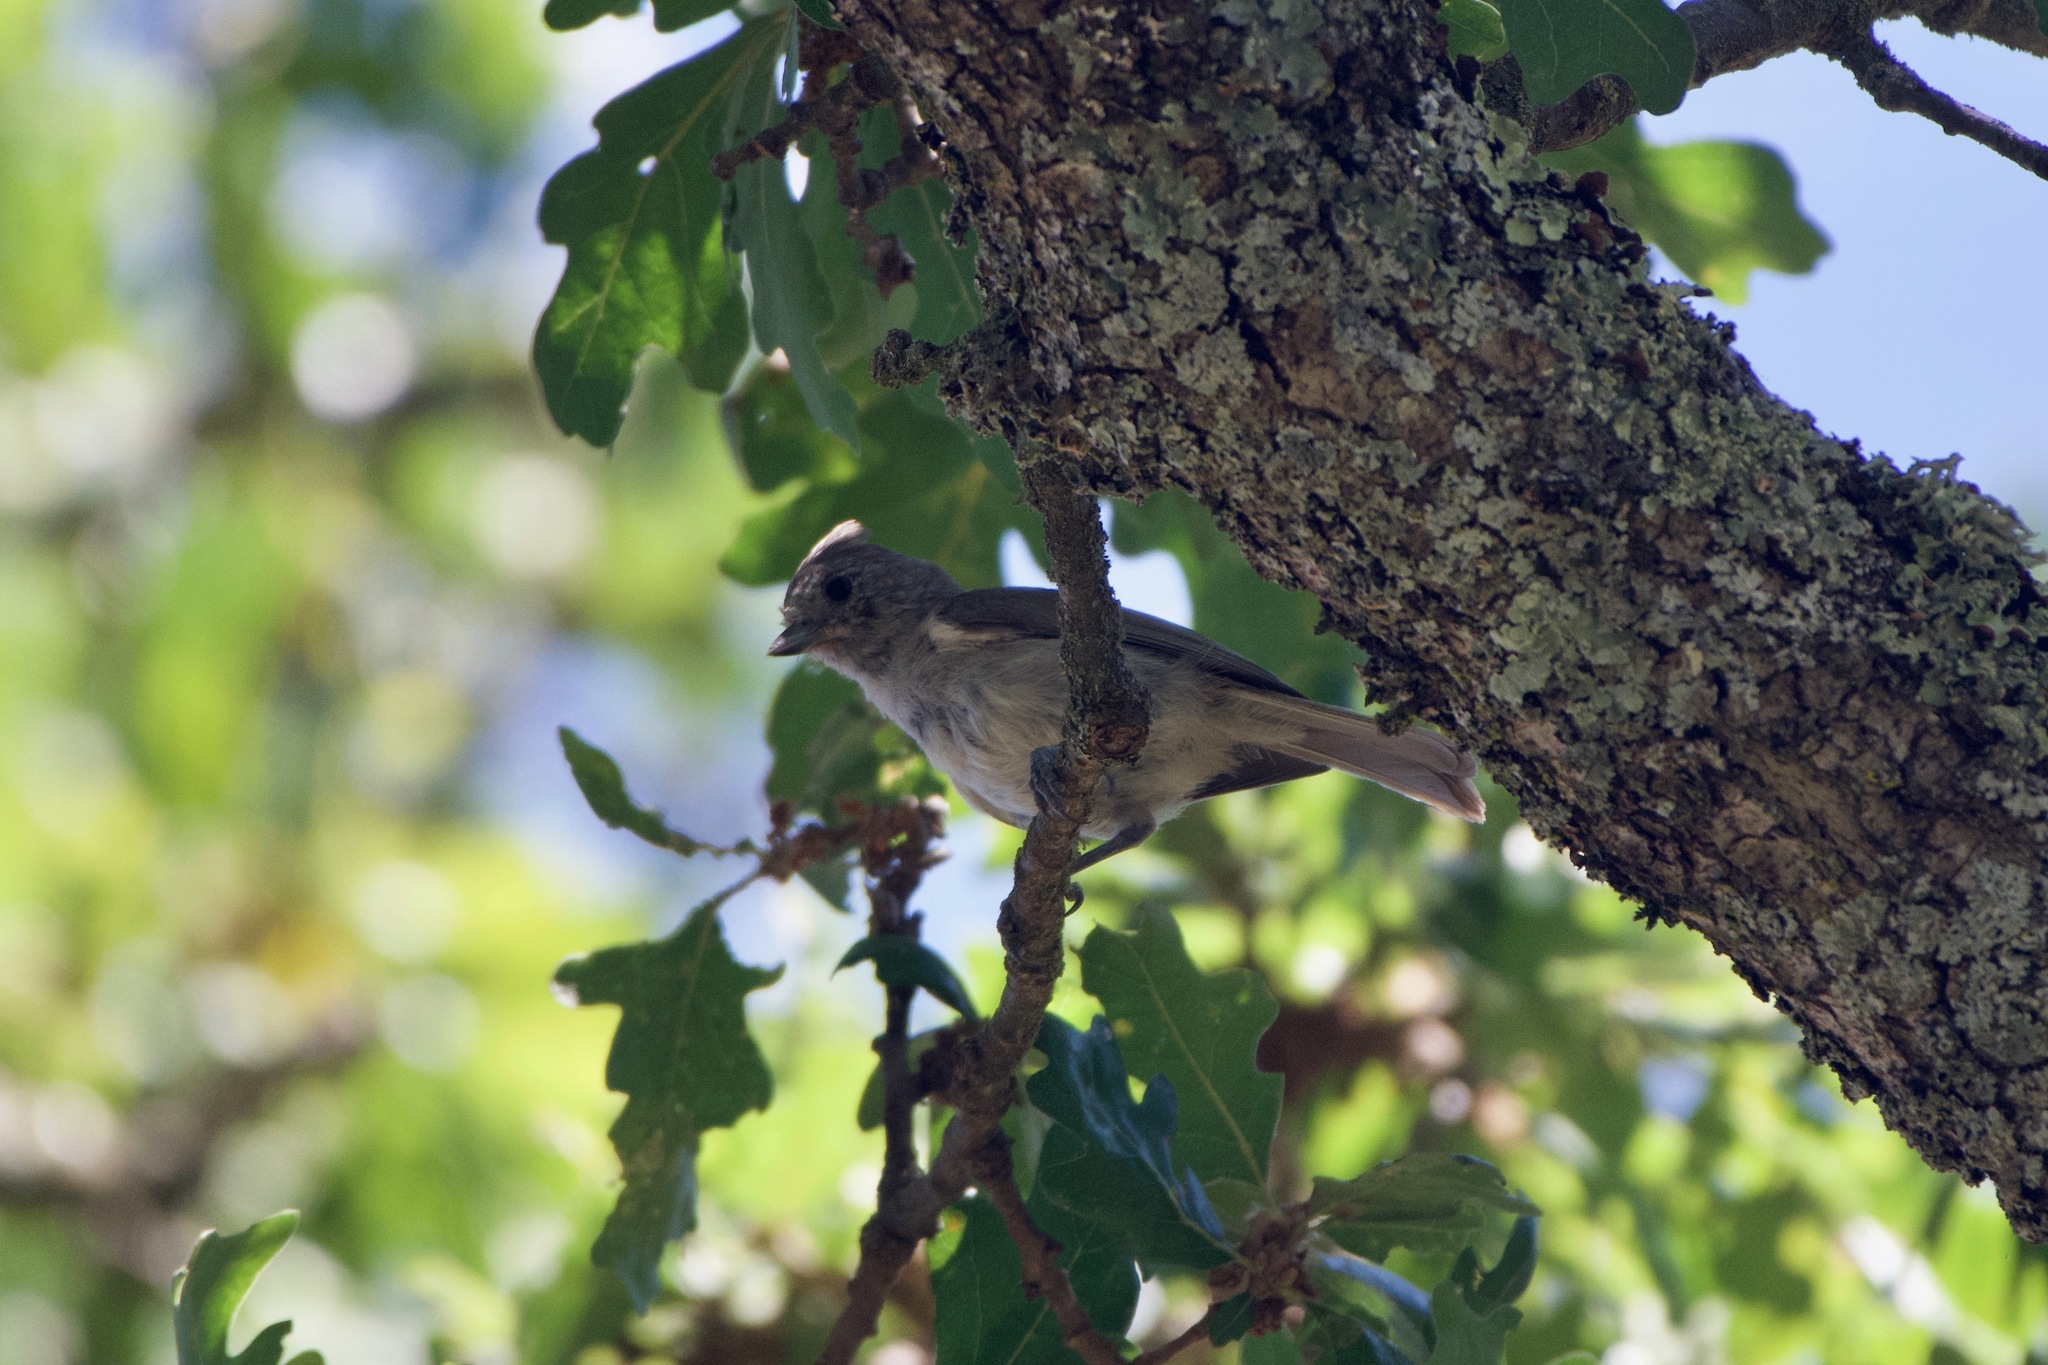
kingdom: Animalia
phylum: Chordata
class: Aves
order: Passeriformes
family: Paridae
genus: Baeolophus
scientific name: Baeolophus inornatus
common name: Oak titmouse
